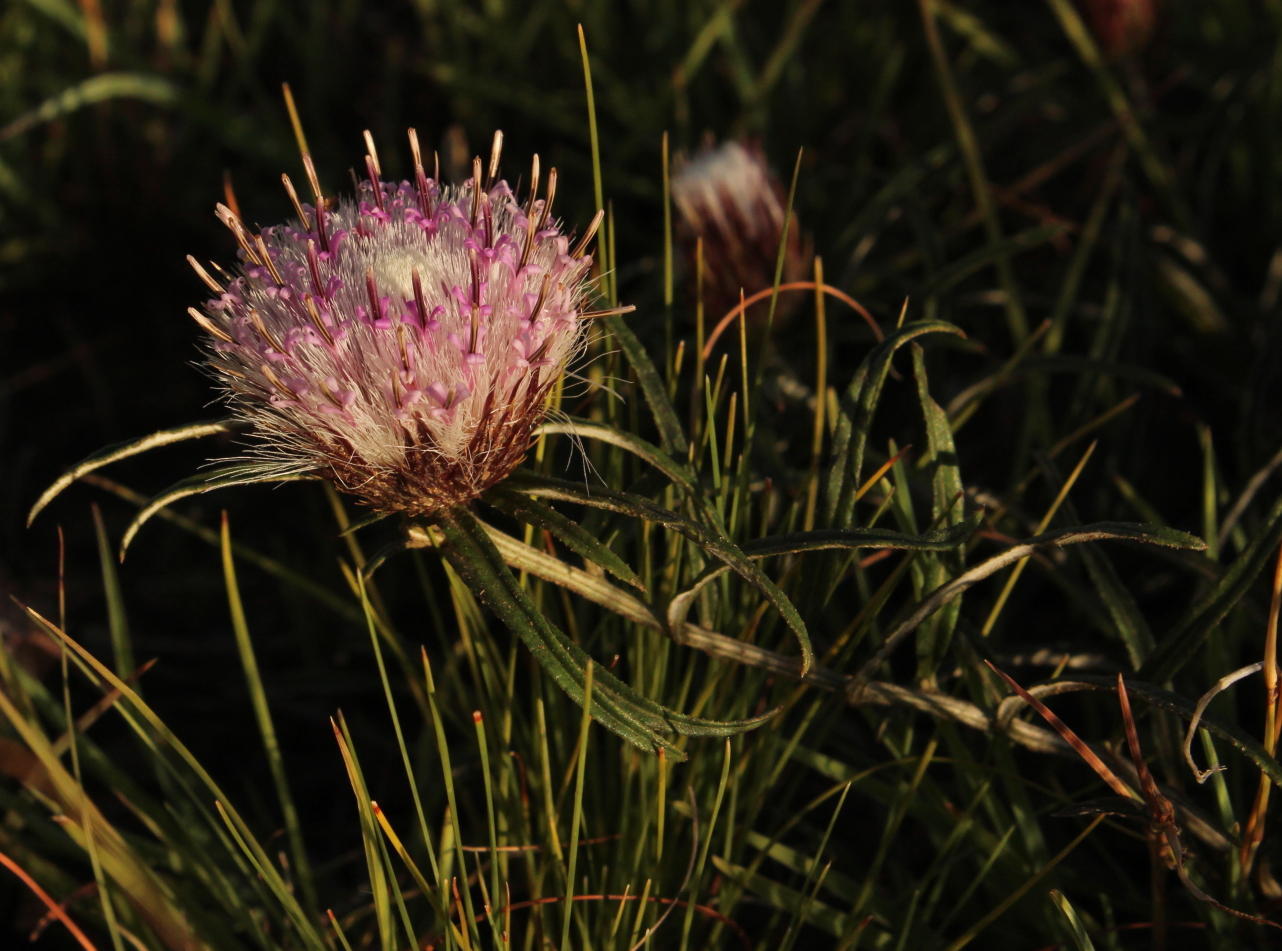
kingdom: Plantae
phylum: Tracheophyta
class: Magnoliopsida
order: Asterales
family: Asteraceae
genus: Dicoma
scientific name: Dicoma anomala
